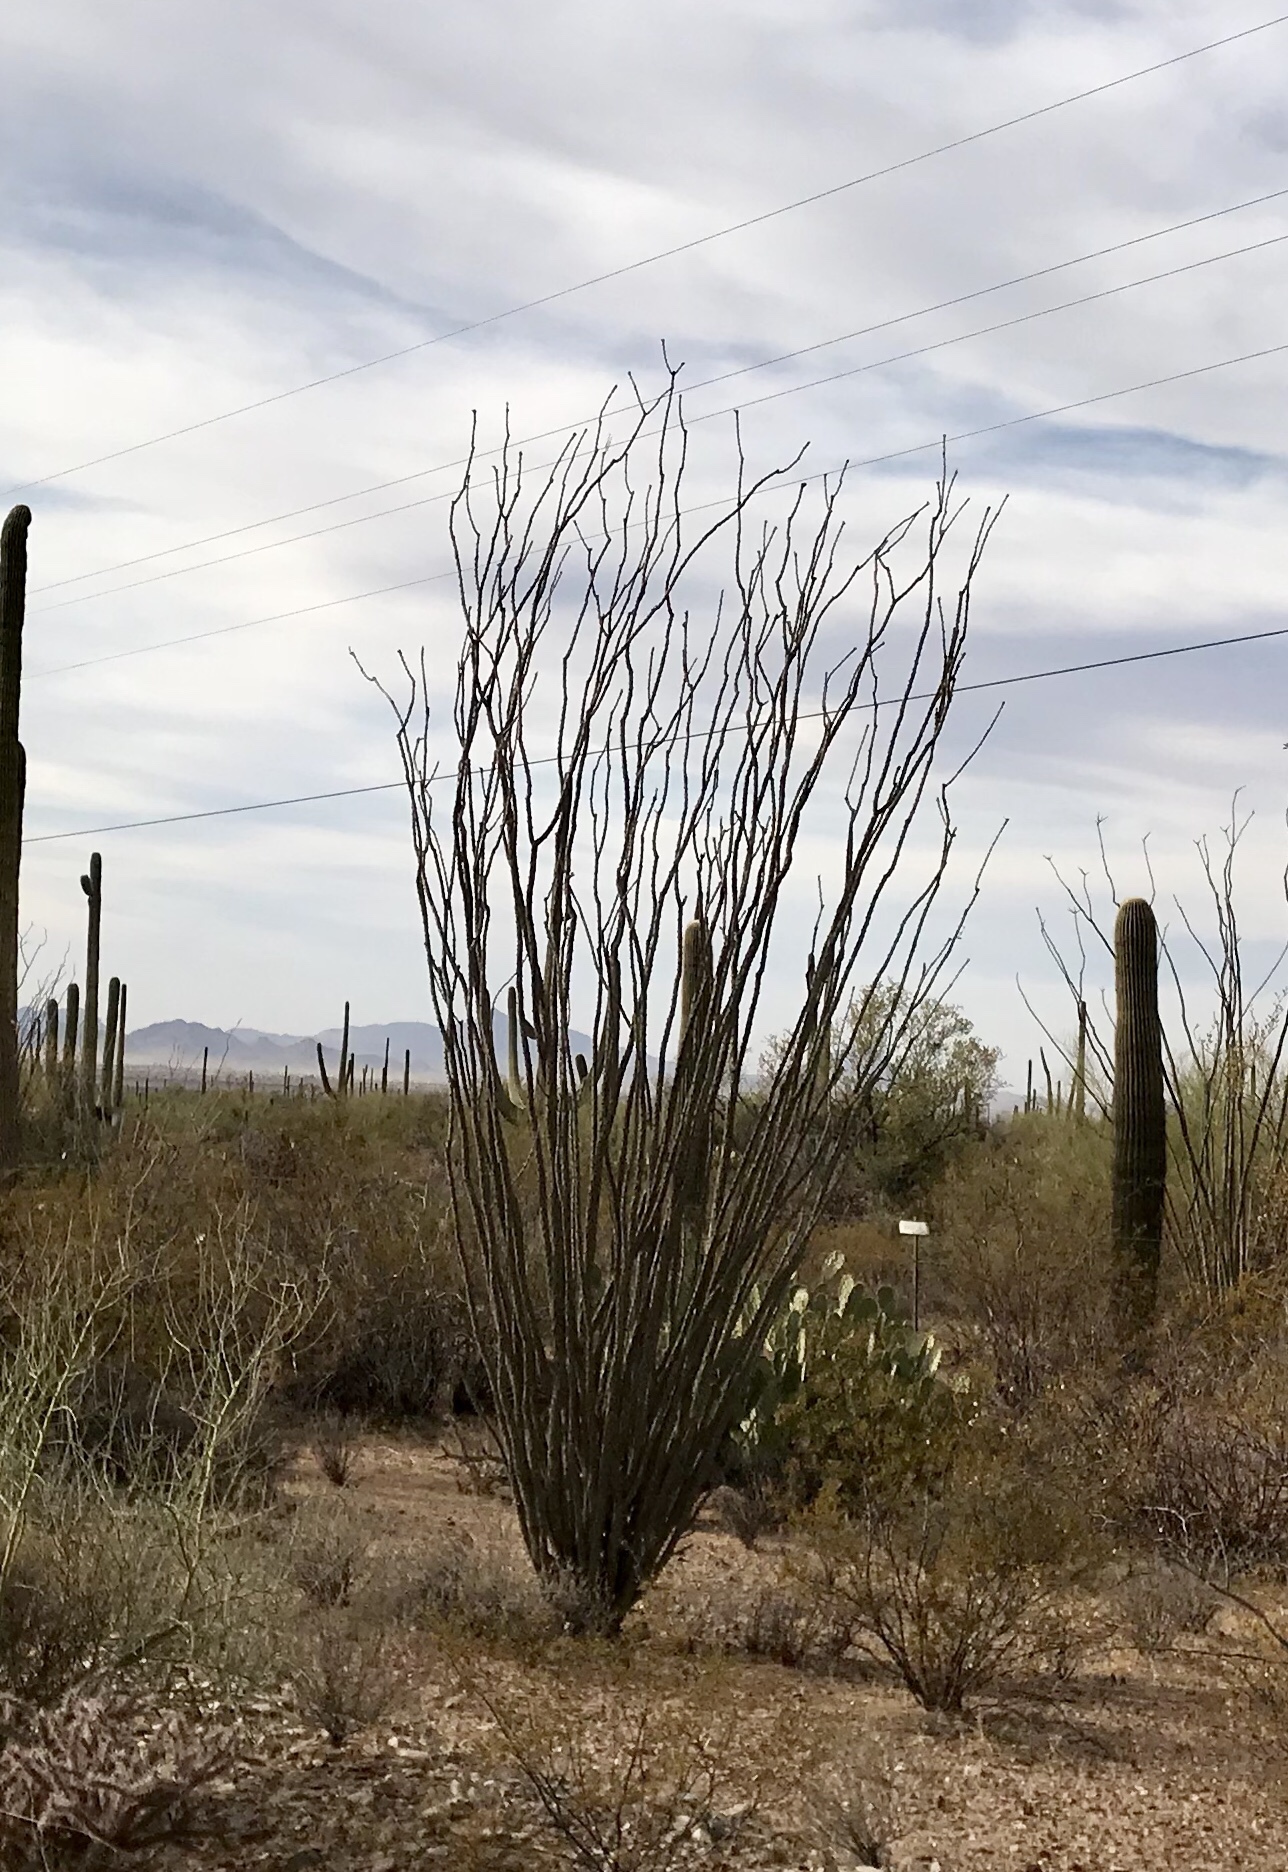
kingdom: Plantae
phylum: Tracheophyta
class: Magnoliopsida
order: Ericales
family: Fouquieriaceae
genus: Fouquieria
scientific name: Fouquieria splendens
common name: Vine-cactus
